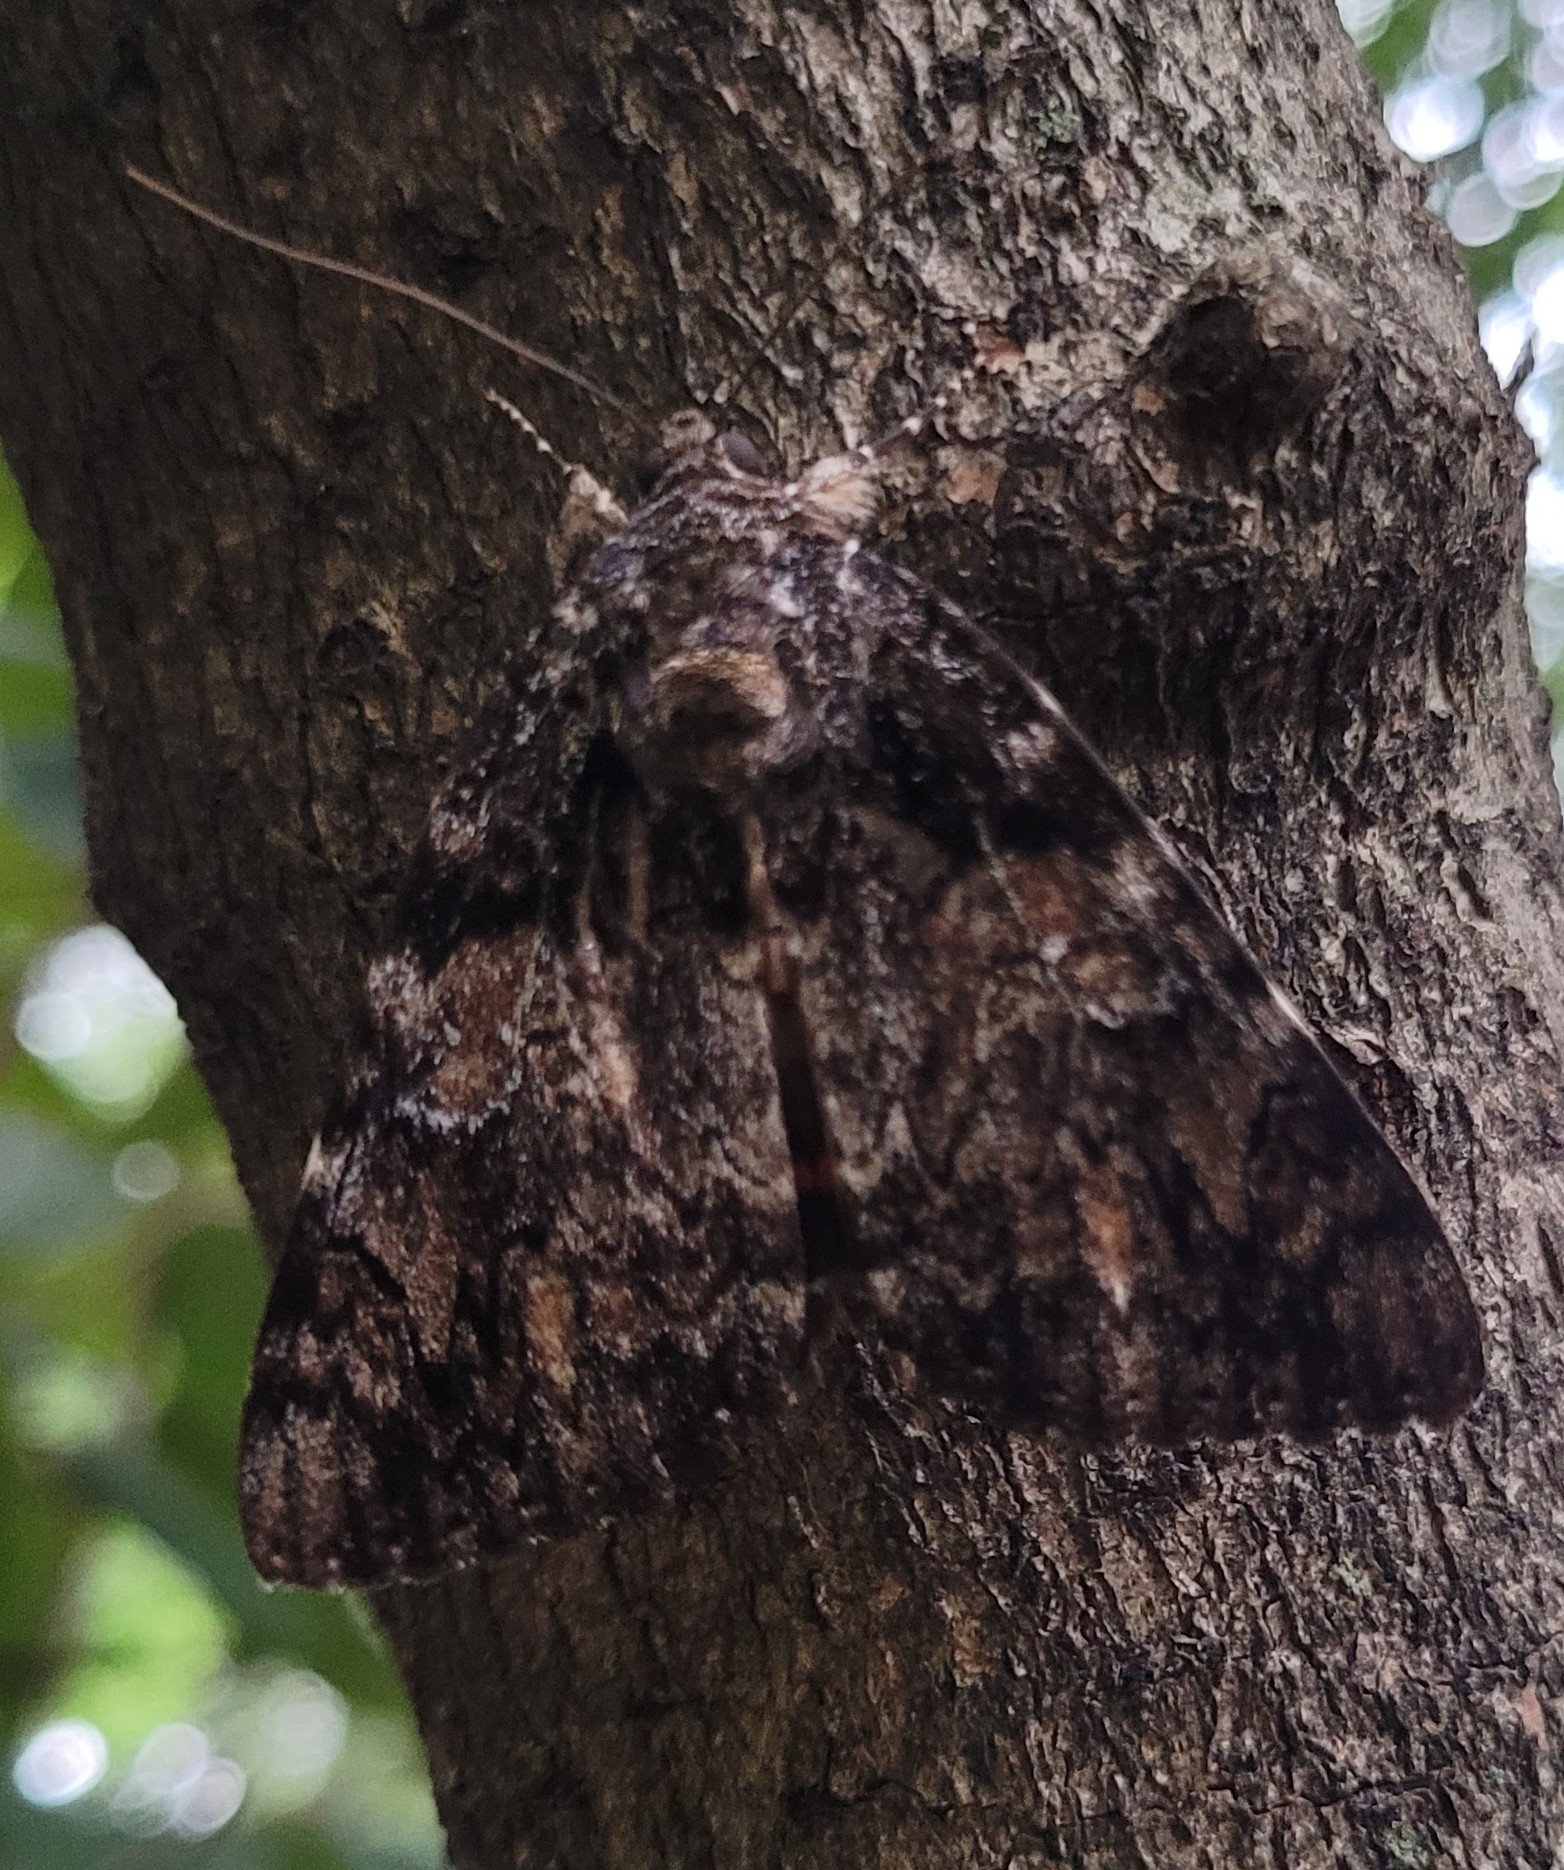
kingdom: Animalia
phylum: Arthropoda
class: Insecta
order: Lepidoptera
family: Erebidae
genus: Catocala
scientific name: Catocala ilia
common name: Ilia underwing
